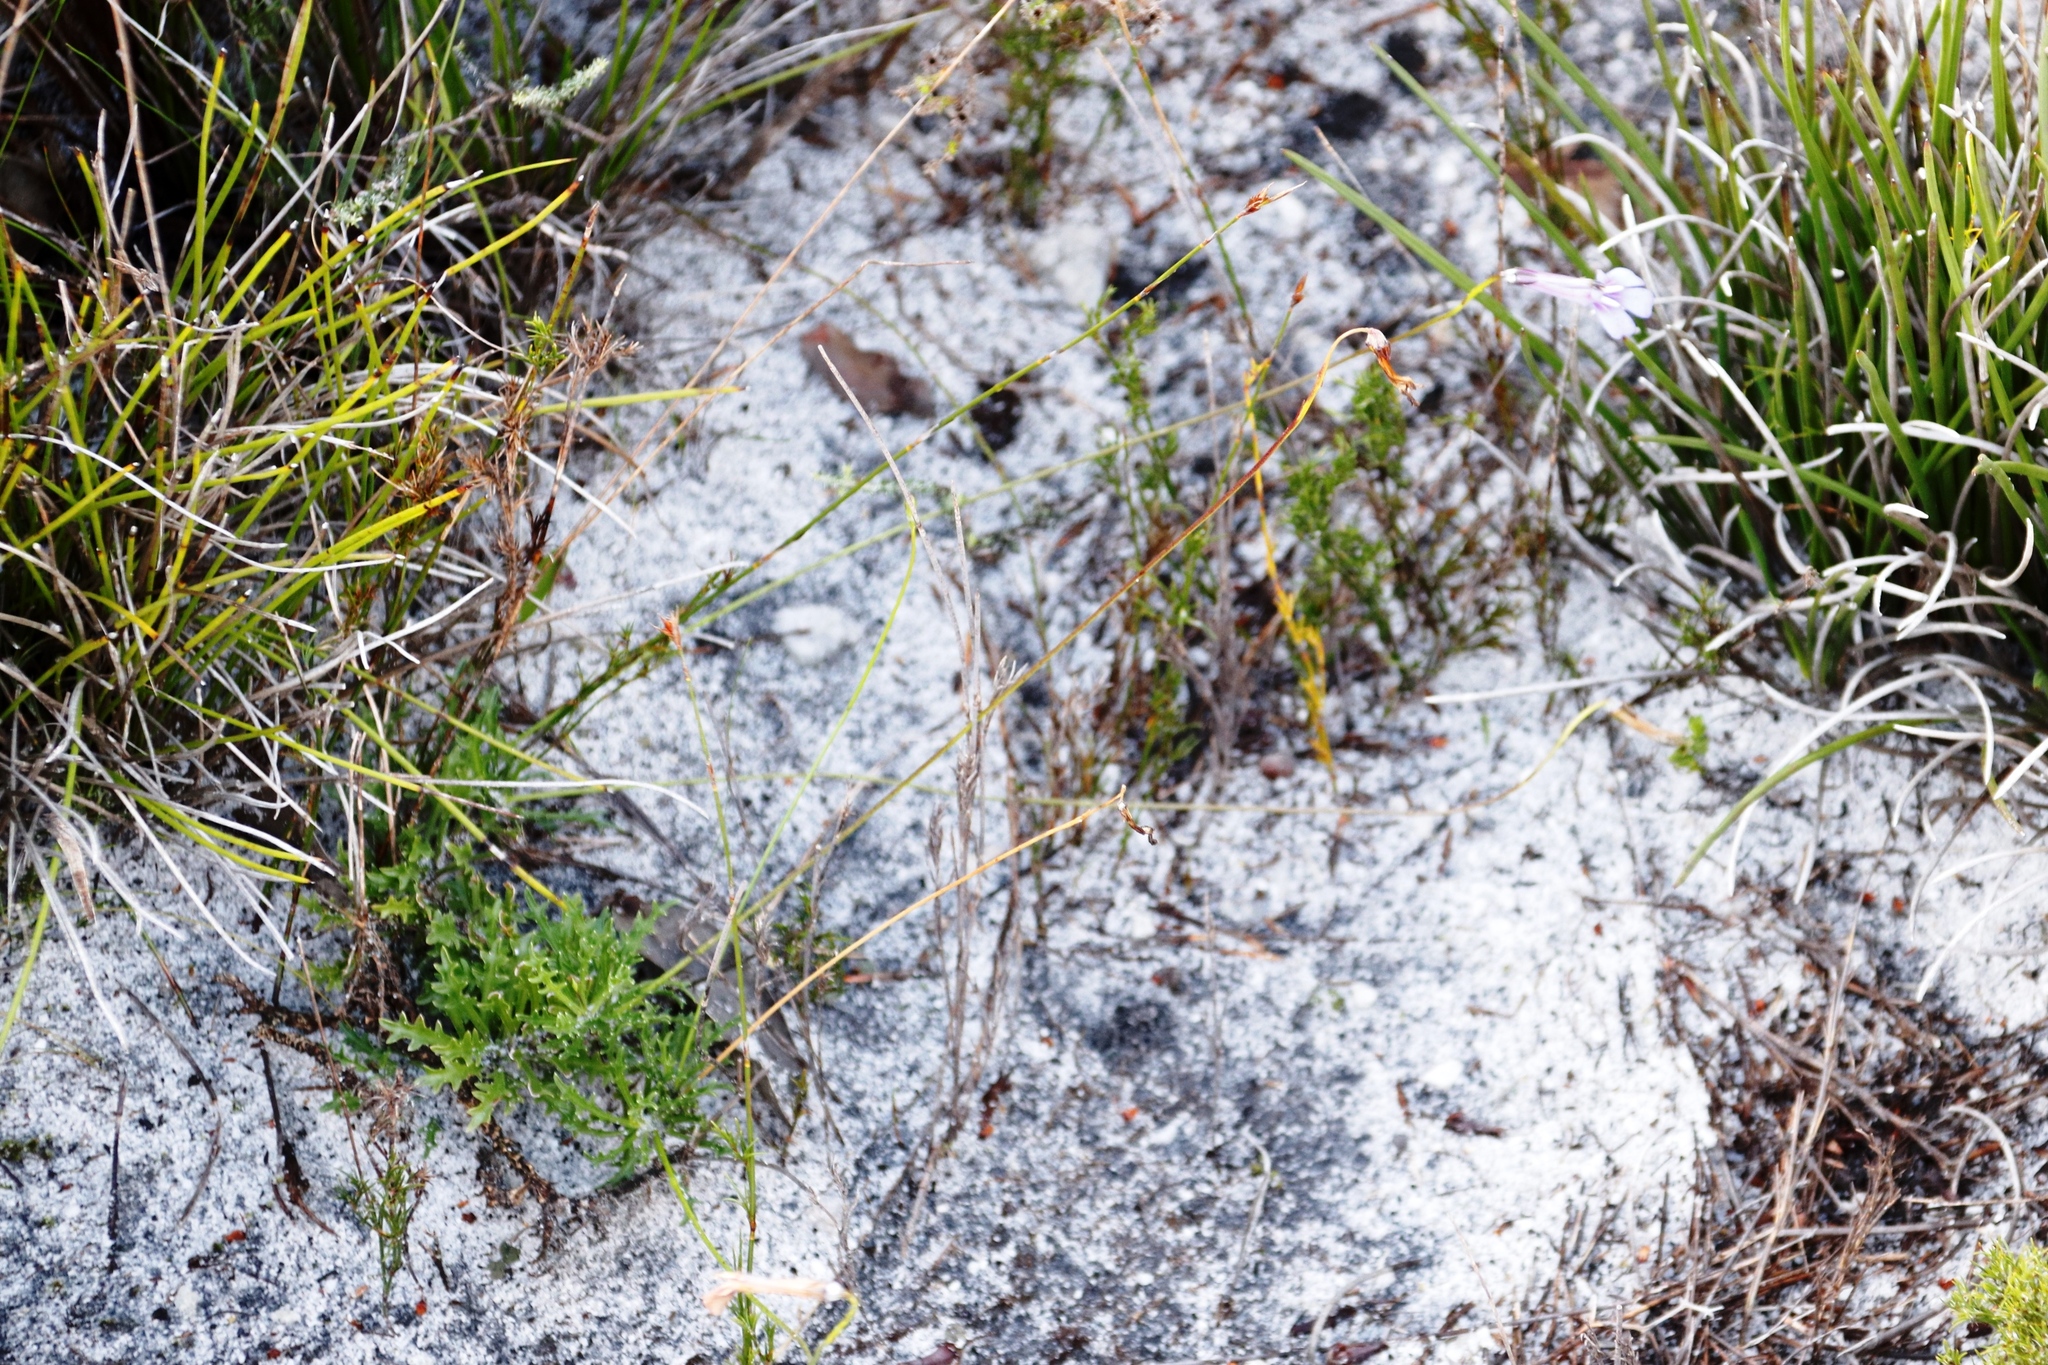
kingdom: Plantae
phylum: Tracheophyta
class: Magnoliopsida
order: Asterales
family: Campanulaceae
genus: Lobelia
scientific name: Lobelia coronopifolia
